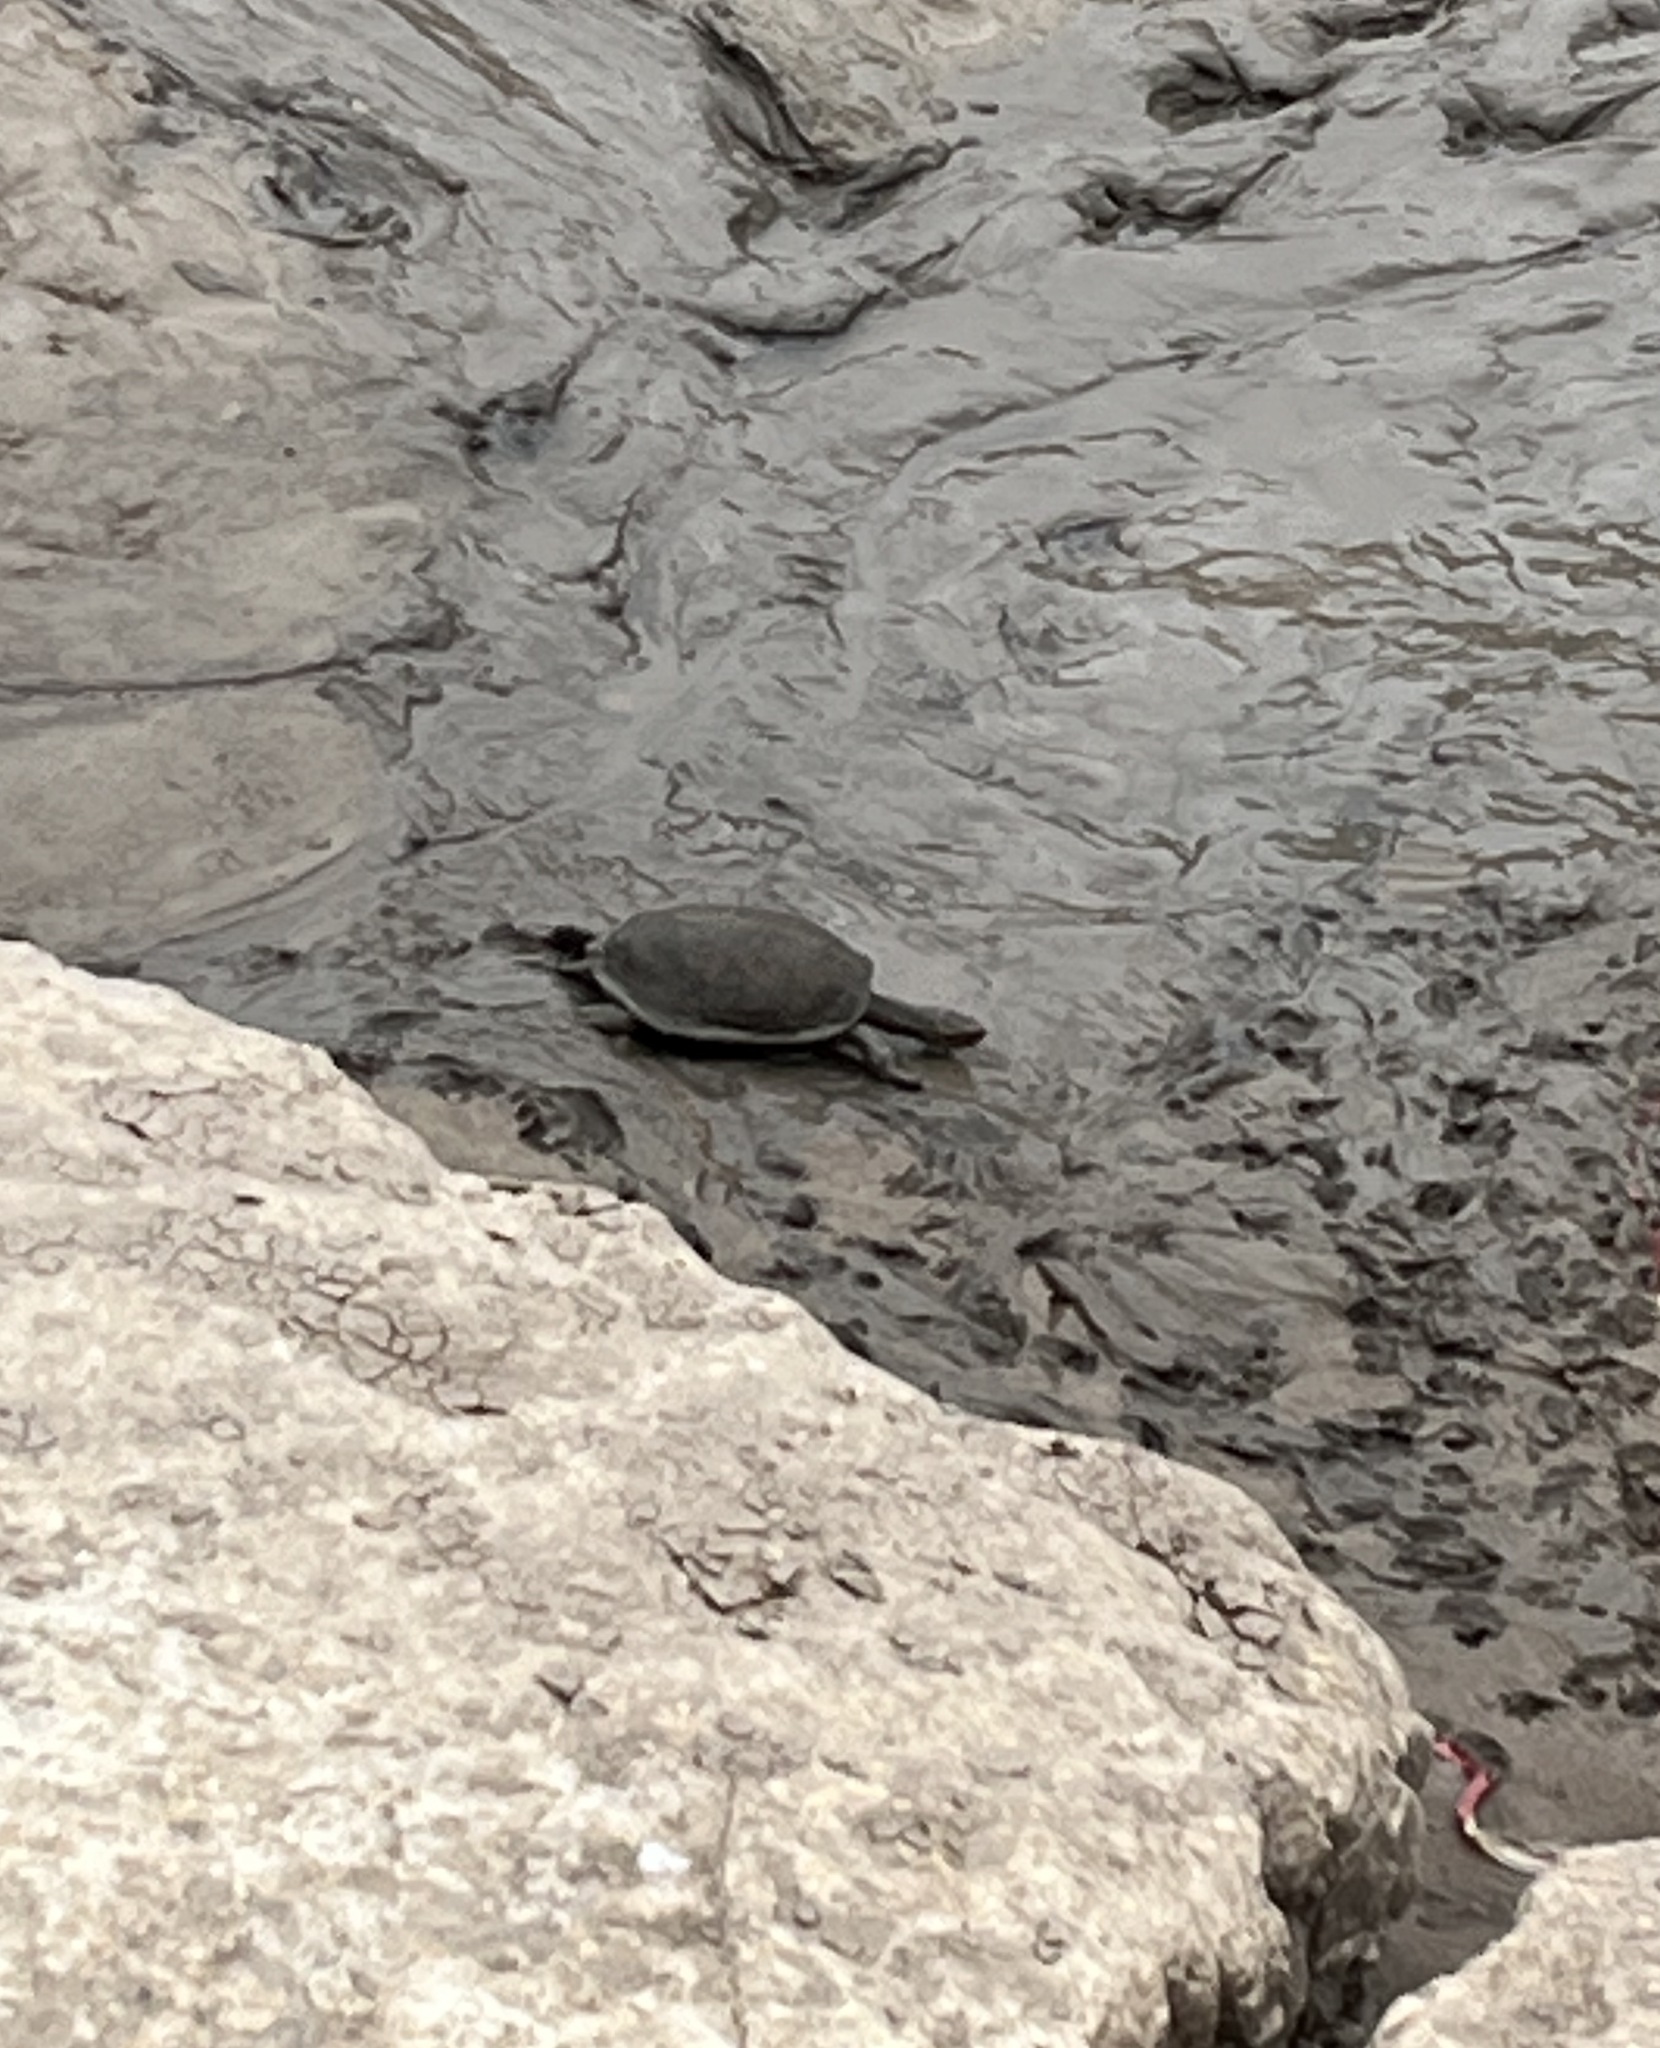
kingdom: Animalia
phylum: Chordata
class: Testudines
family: Geoemydidae
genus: Mauremys
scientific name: Mauremys rivulata
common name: Western caspian turtle
